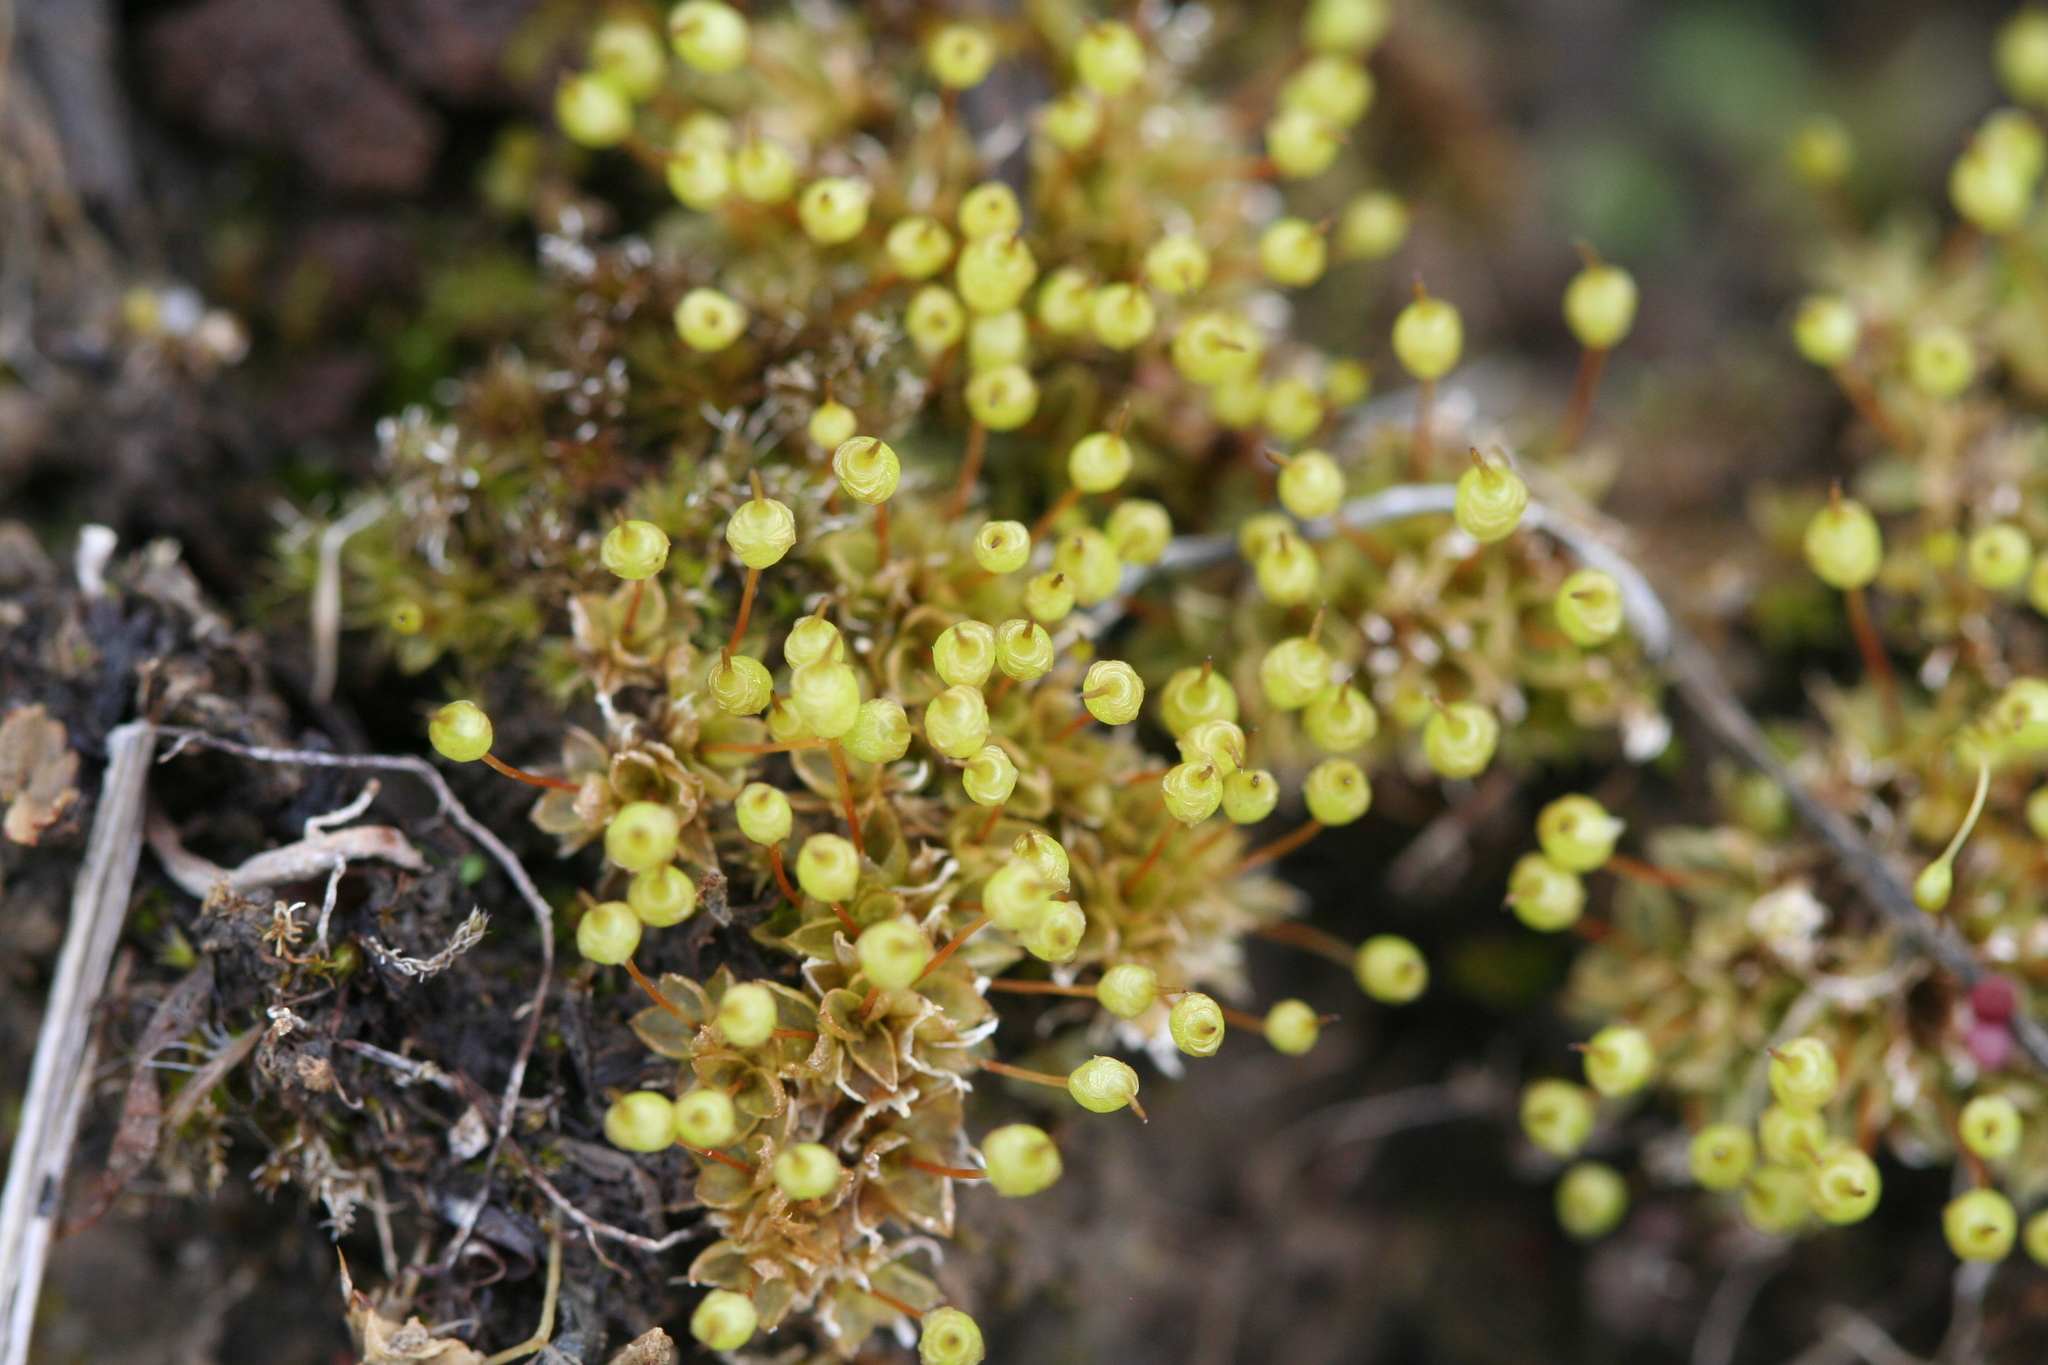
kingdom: Plantae
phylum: Bryophyta
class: Bryopsida
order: Funariales
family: Funariaceae
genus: Physcomitrium
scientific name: Physcomitrium pyriforme
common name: Common bladder-moss
